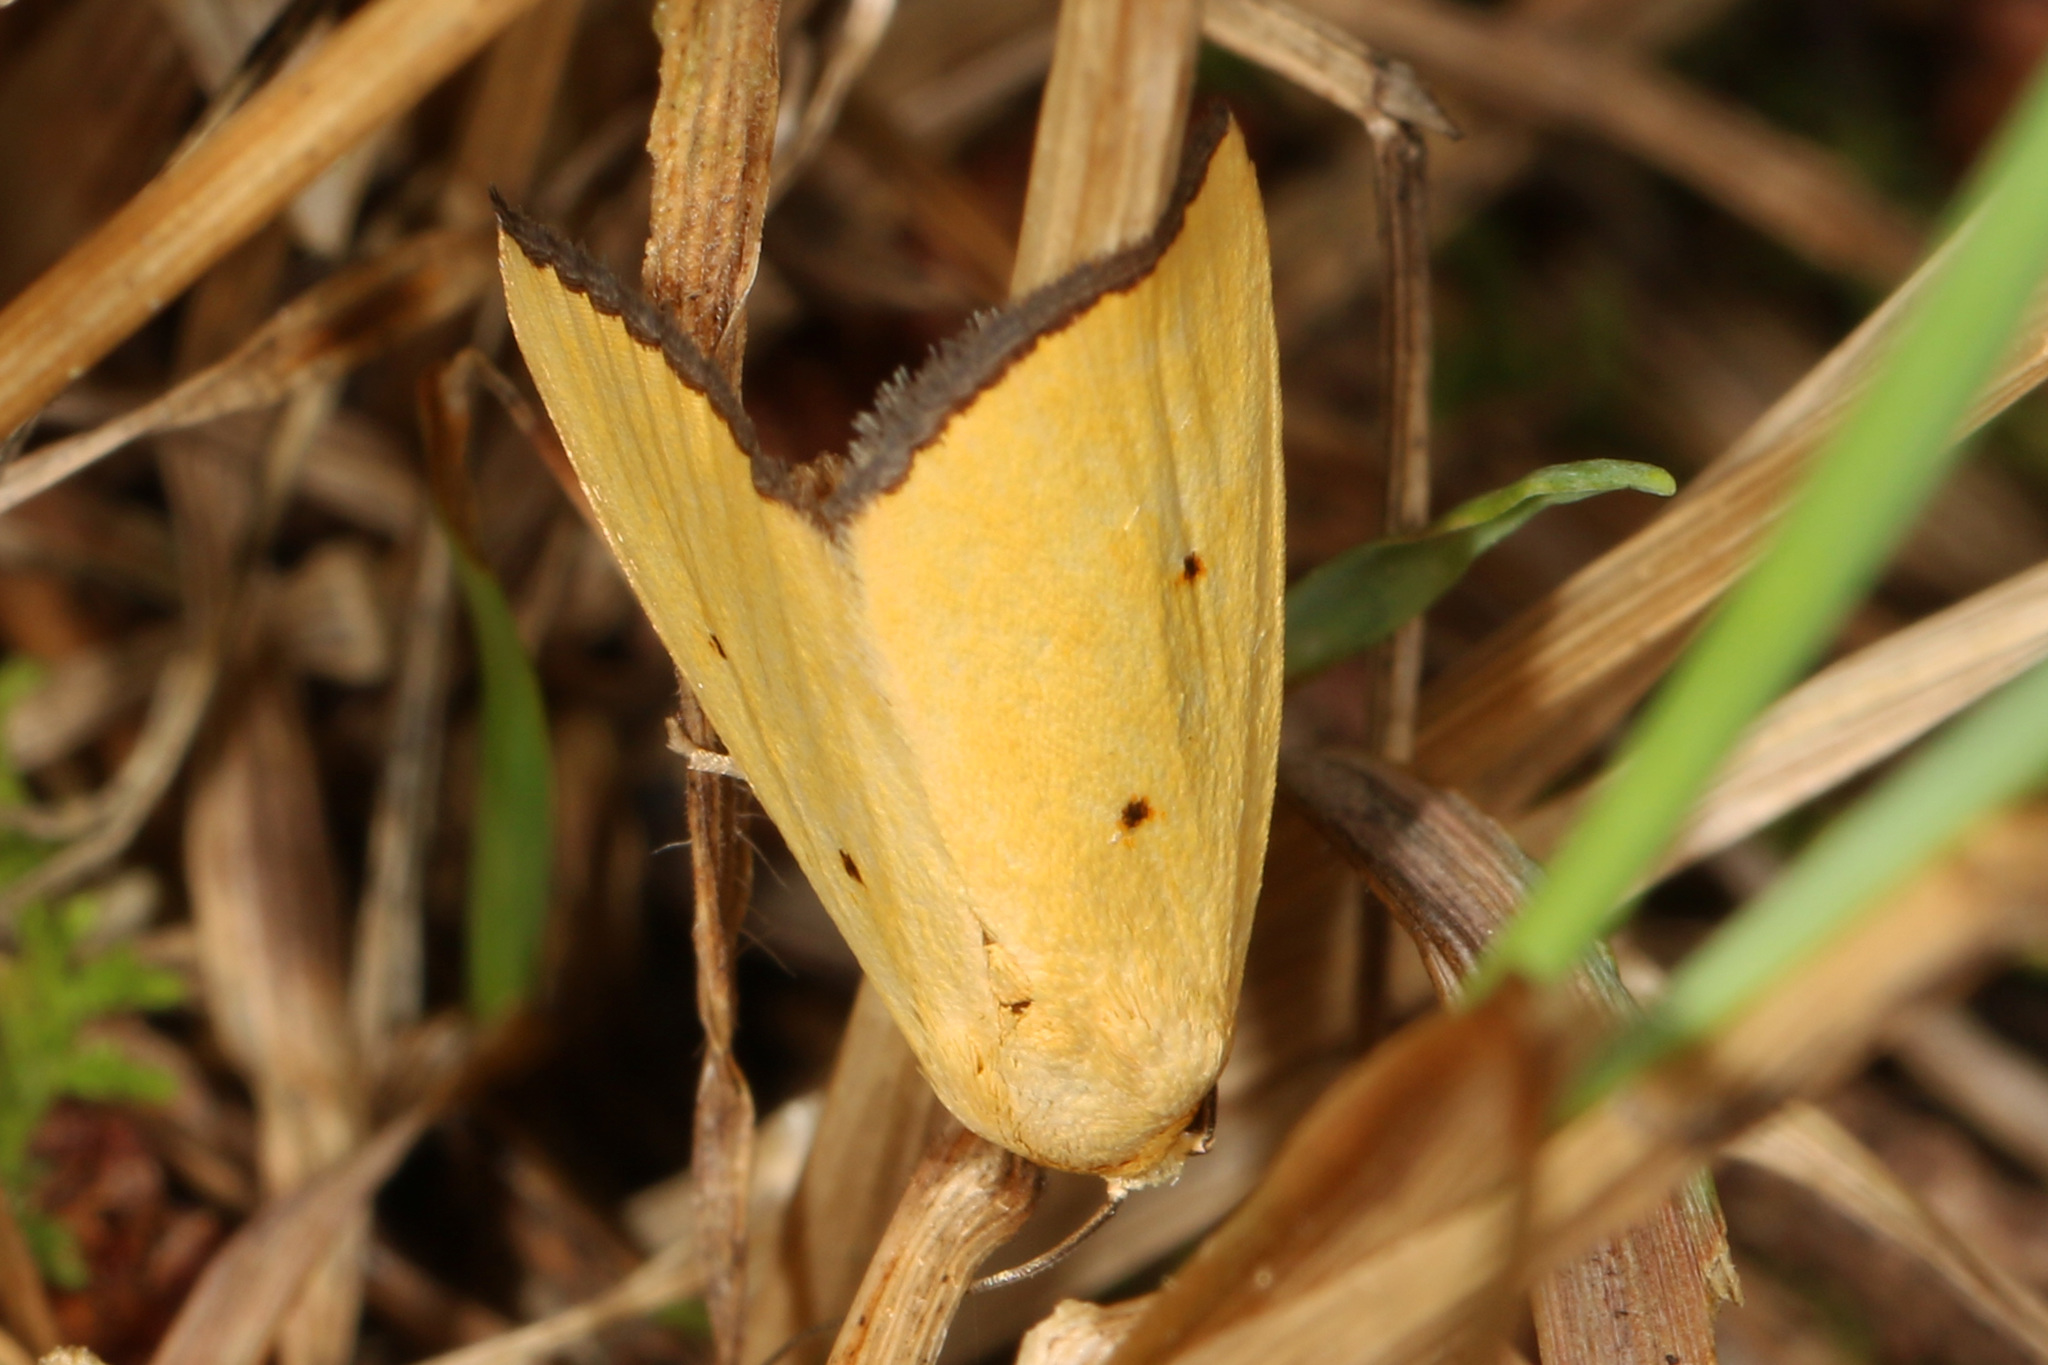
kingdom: Animalia
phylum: Arthropoda
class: Insecta
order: Lepidoptera
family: Noctuidae
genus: Marimatha
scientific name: Marimatha nigrofimbria
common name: Black-bordered lemon moth
